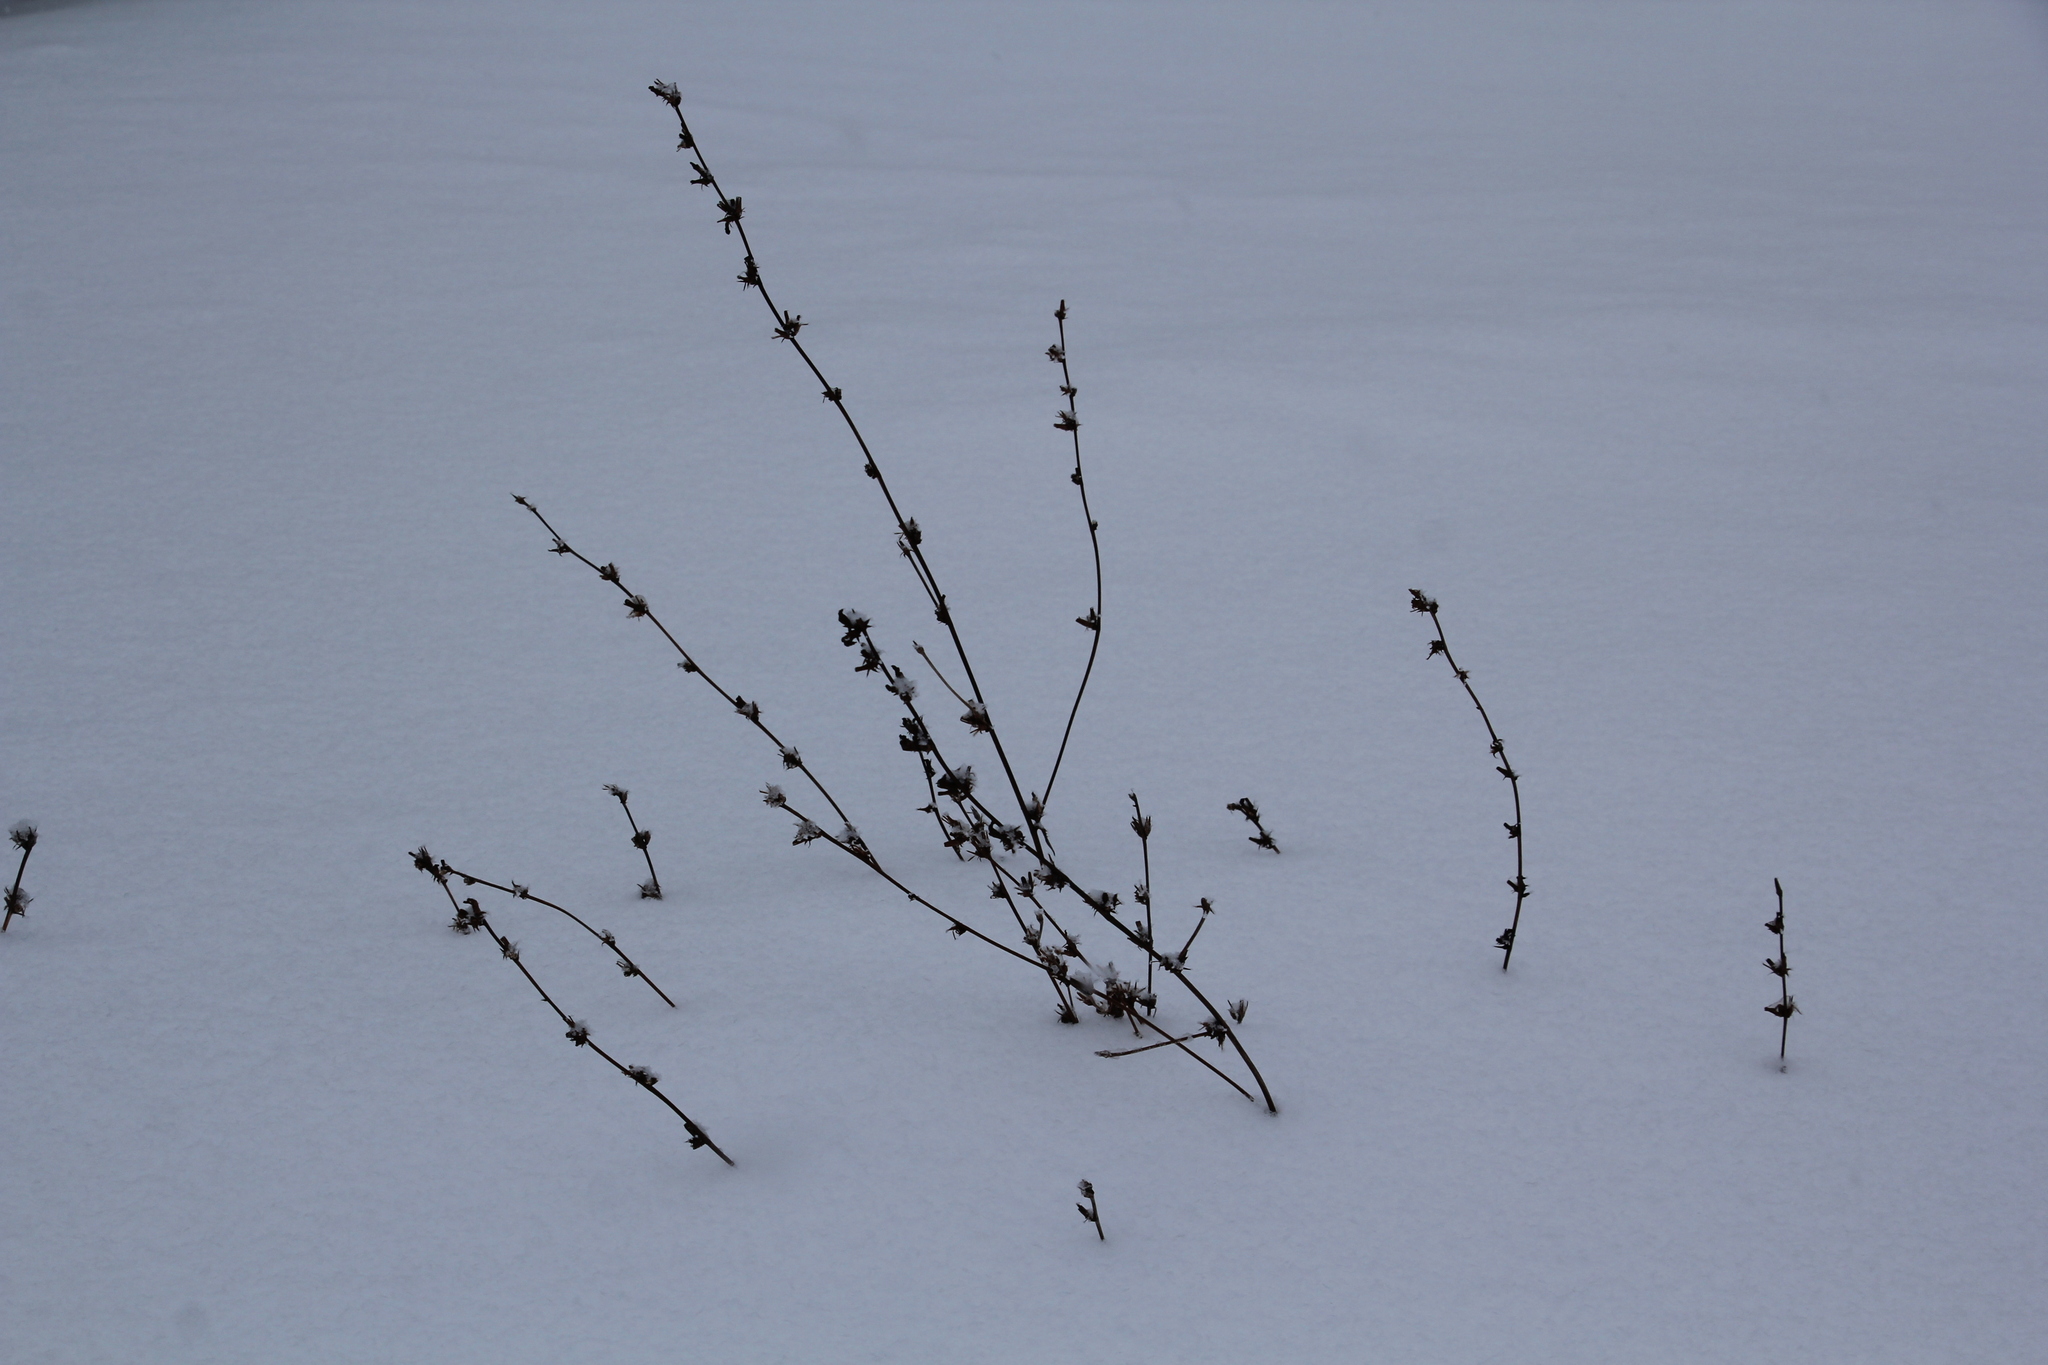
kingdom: Plantae
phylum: Tracheophyta
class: Magnoliopsida
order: Asterales
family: Asteraceae
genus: Cichorium
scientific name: Cichorium intybus
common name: Chicory
